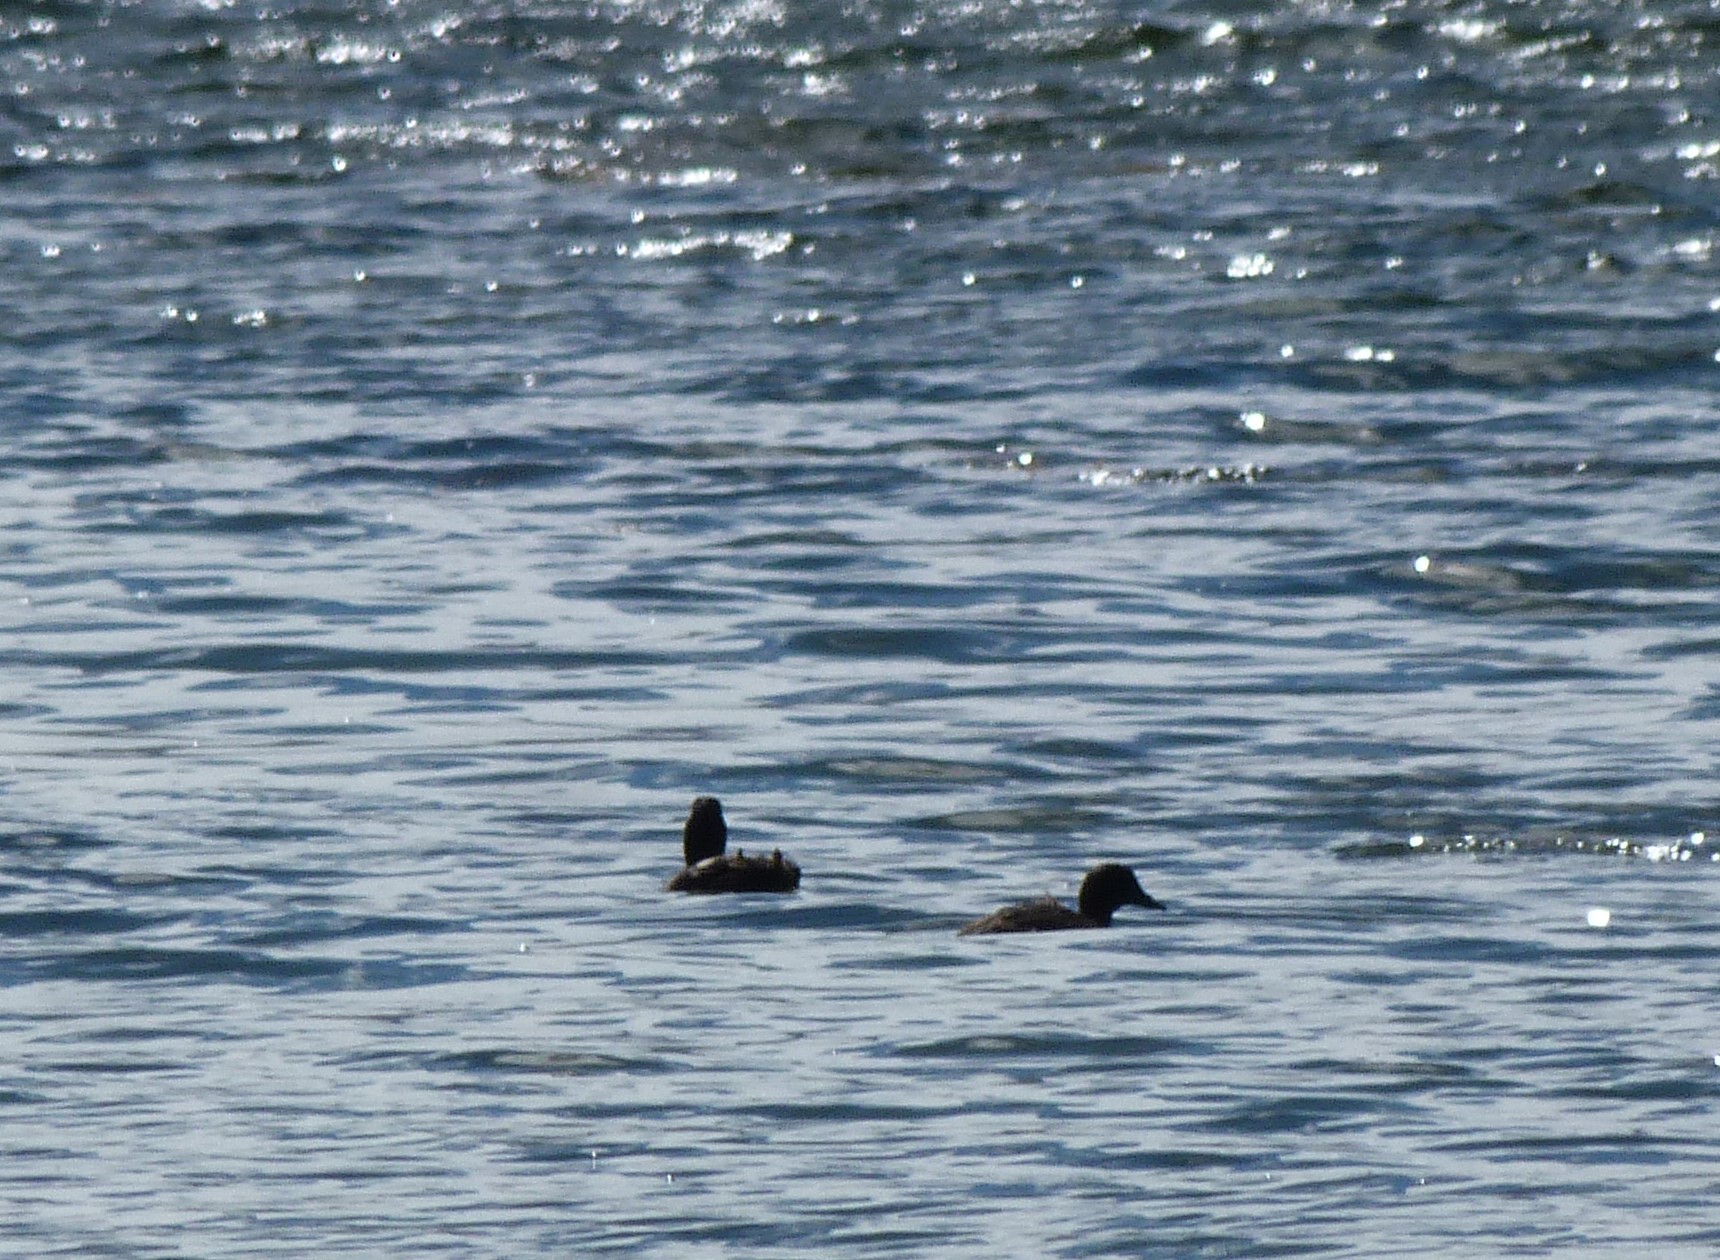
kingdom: Animalia
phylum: Chordata
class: Aves
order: Anseriformes
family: Anatidae
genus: Aythya
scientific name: Aythya novaeseelandiae
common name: New zealand scaup
